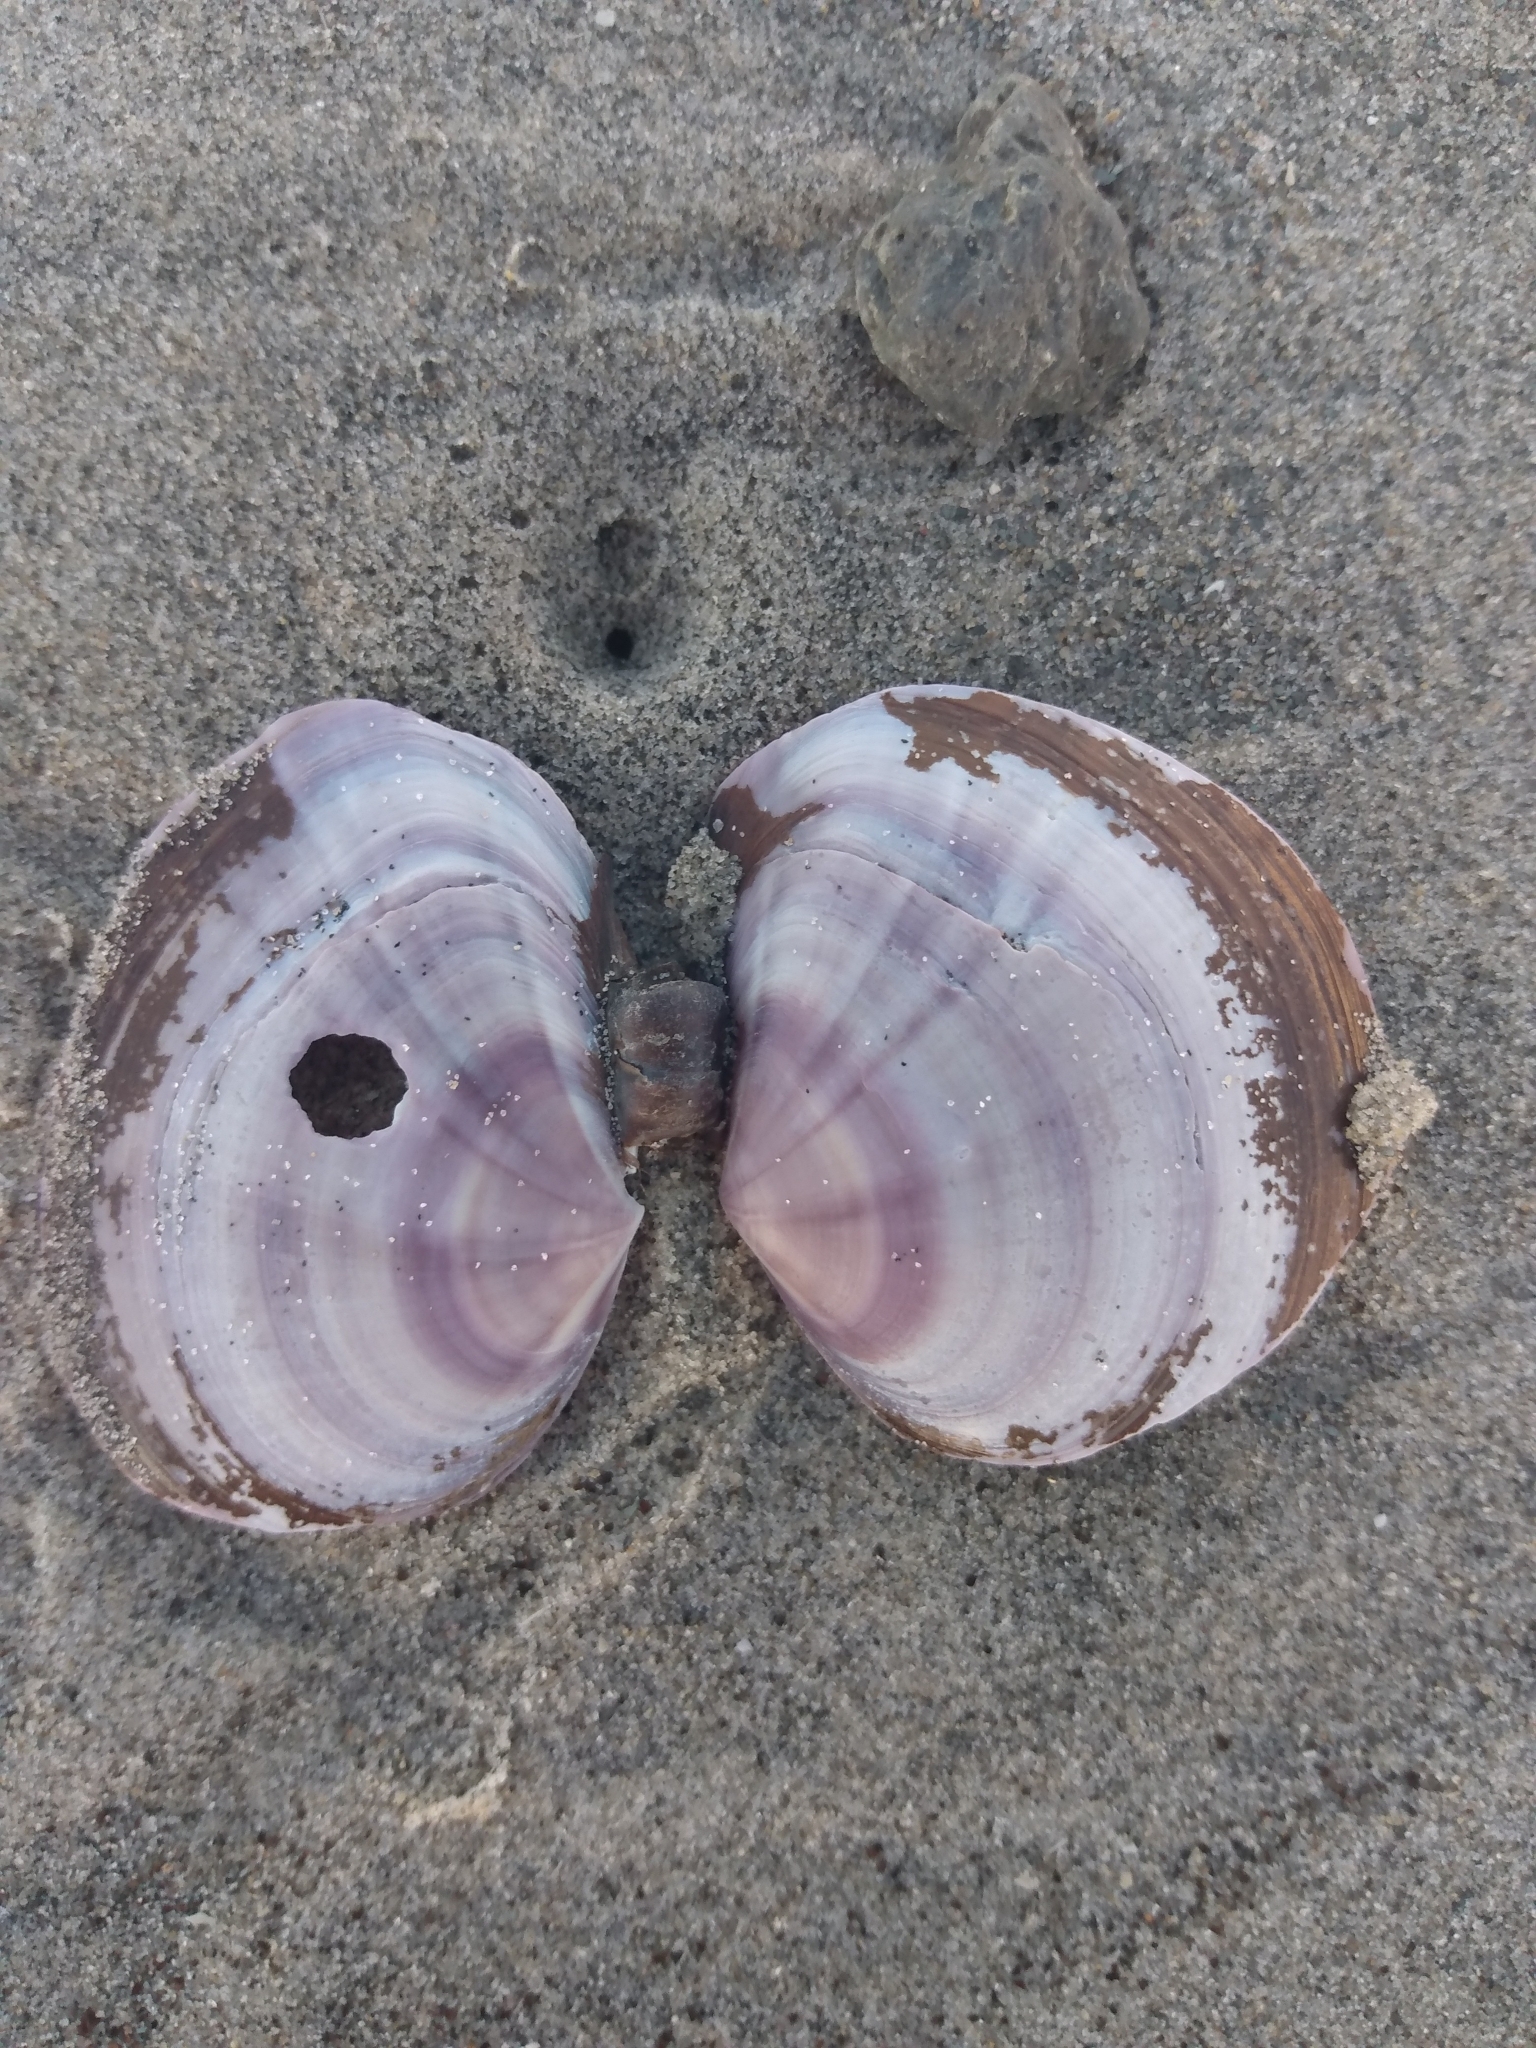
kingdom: Animalia
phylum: Mollusca
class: Bivalvia
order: Cardiida
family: Psammobiidae
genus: Nuttallia
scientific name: Nuttallia nuttallii
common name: California mahogany-clam
